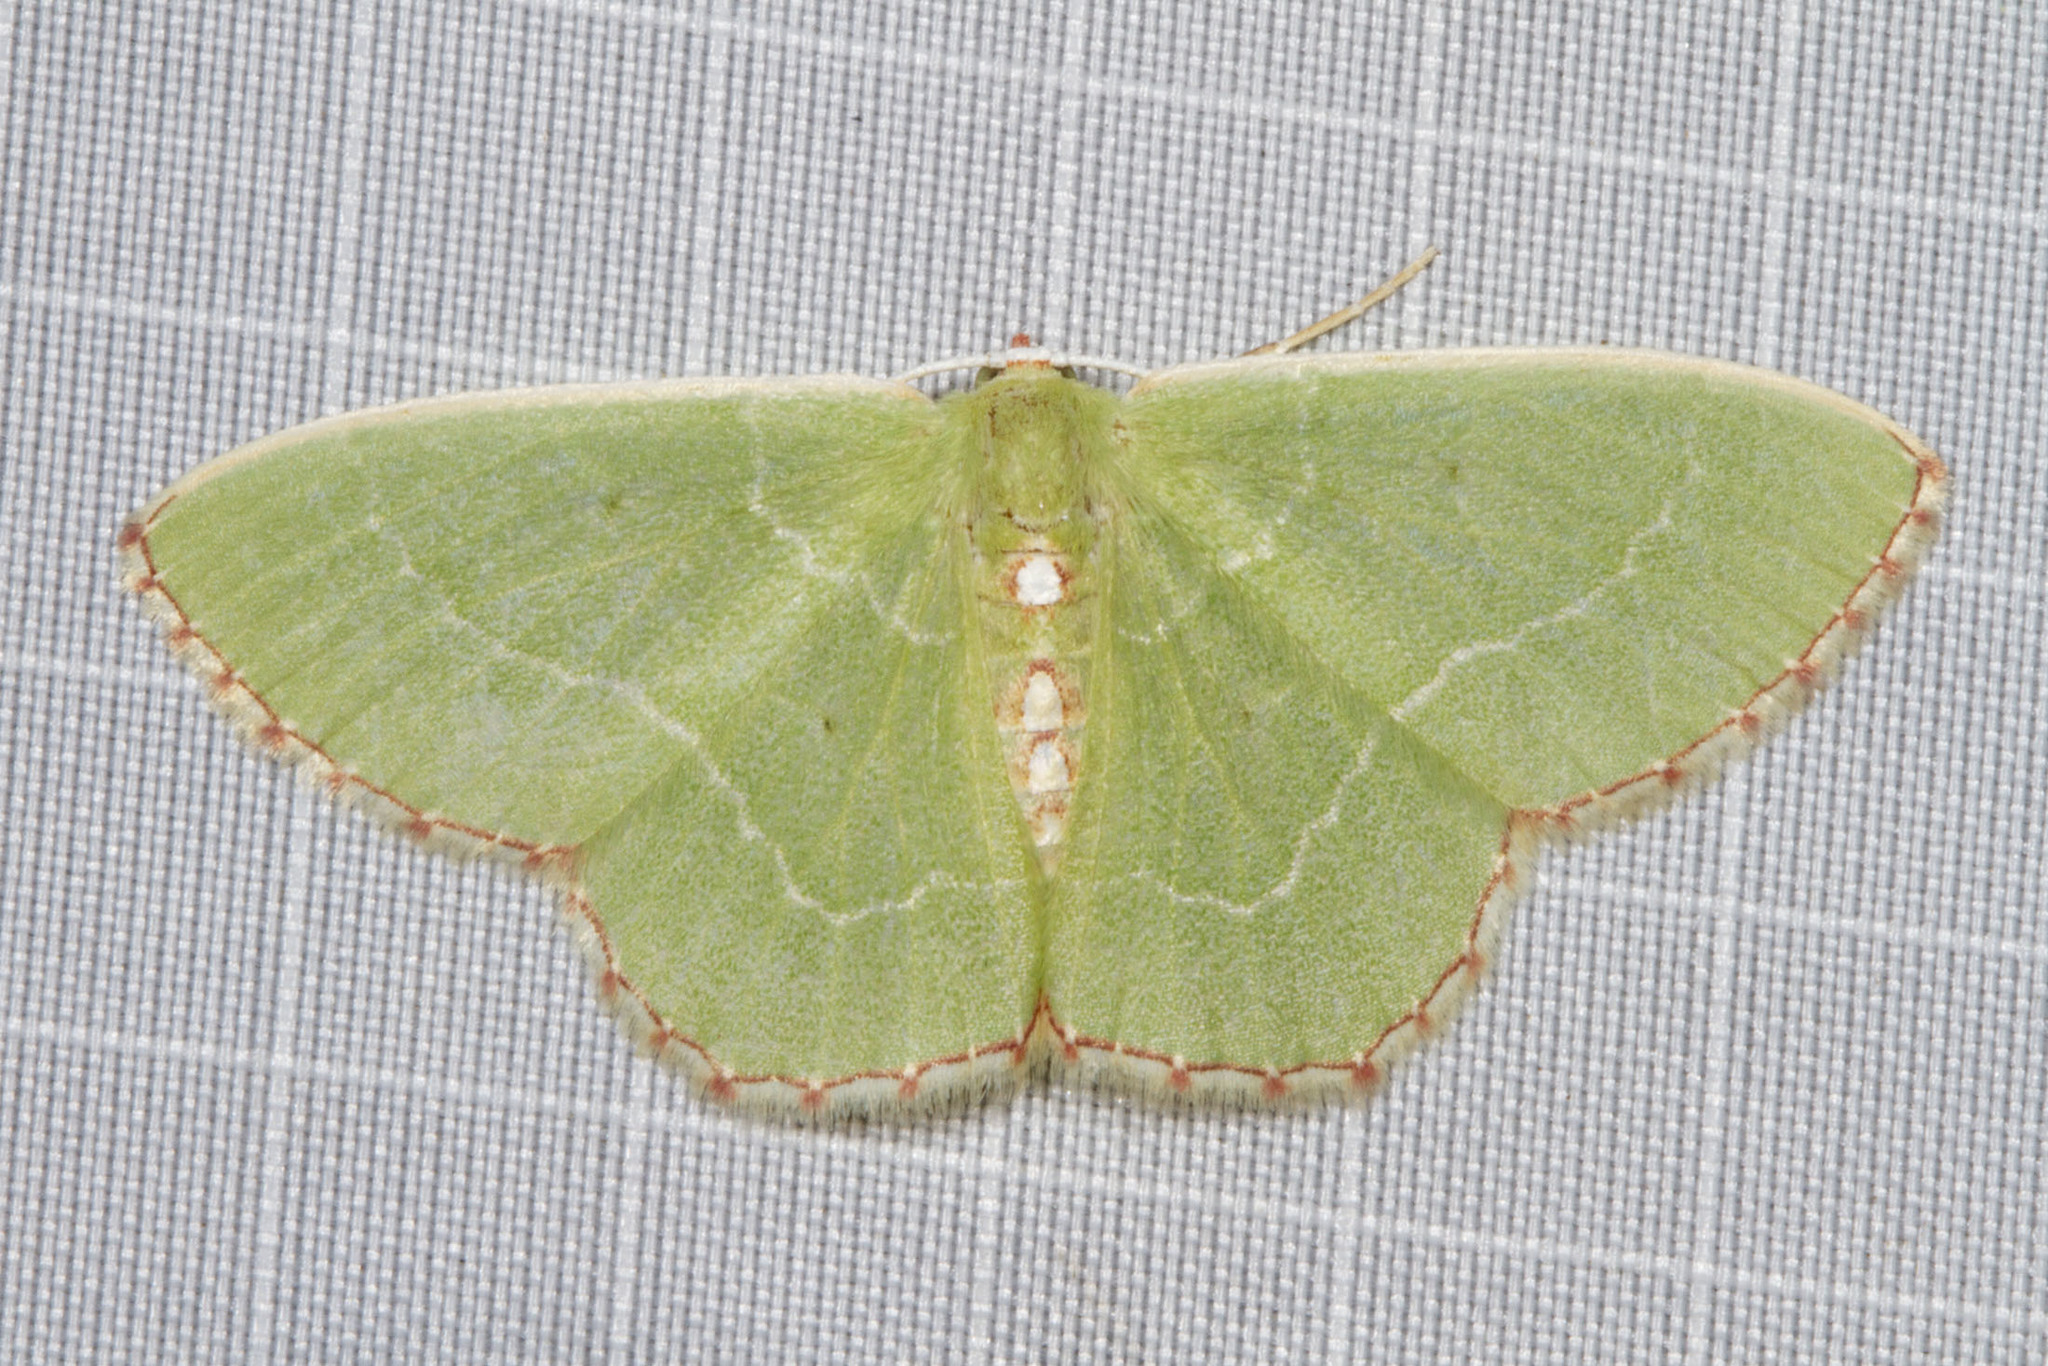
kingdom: Animalia
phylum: Arthropoda
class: Insecta
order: Lepidoptera
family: Geometridae
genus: Nemoria
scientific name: Nemoria lixaria
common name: Red-bordered emerald
